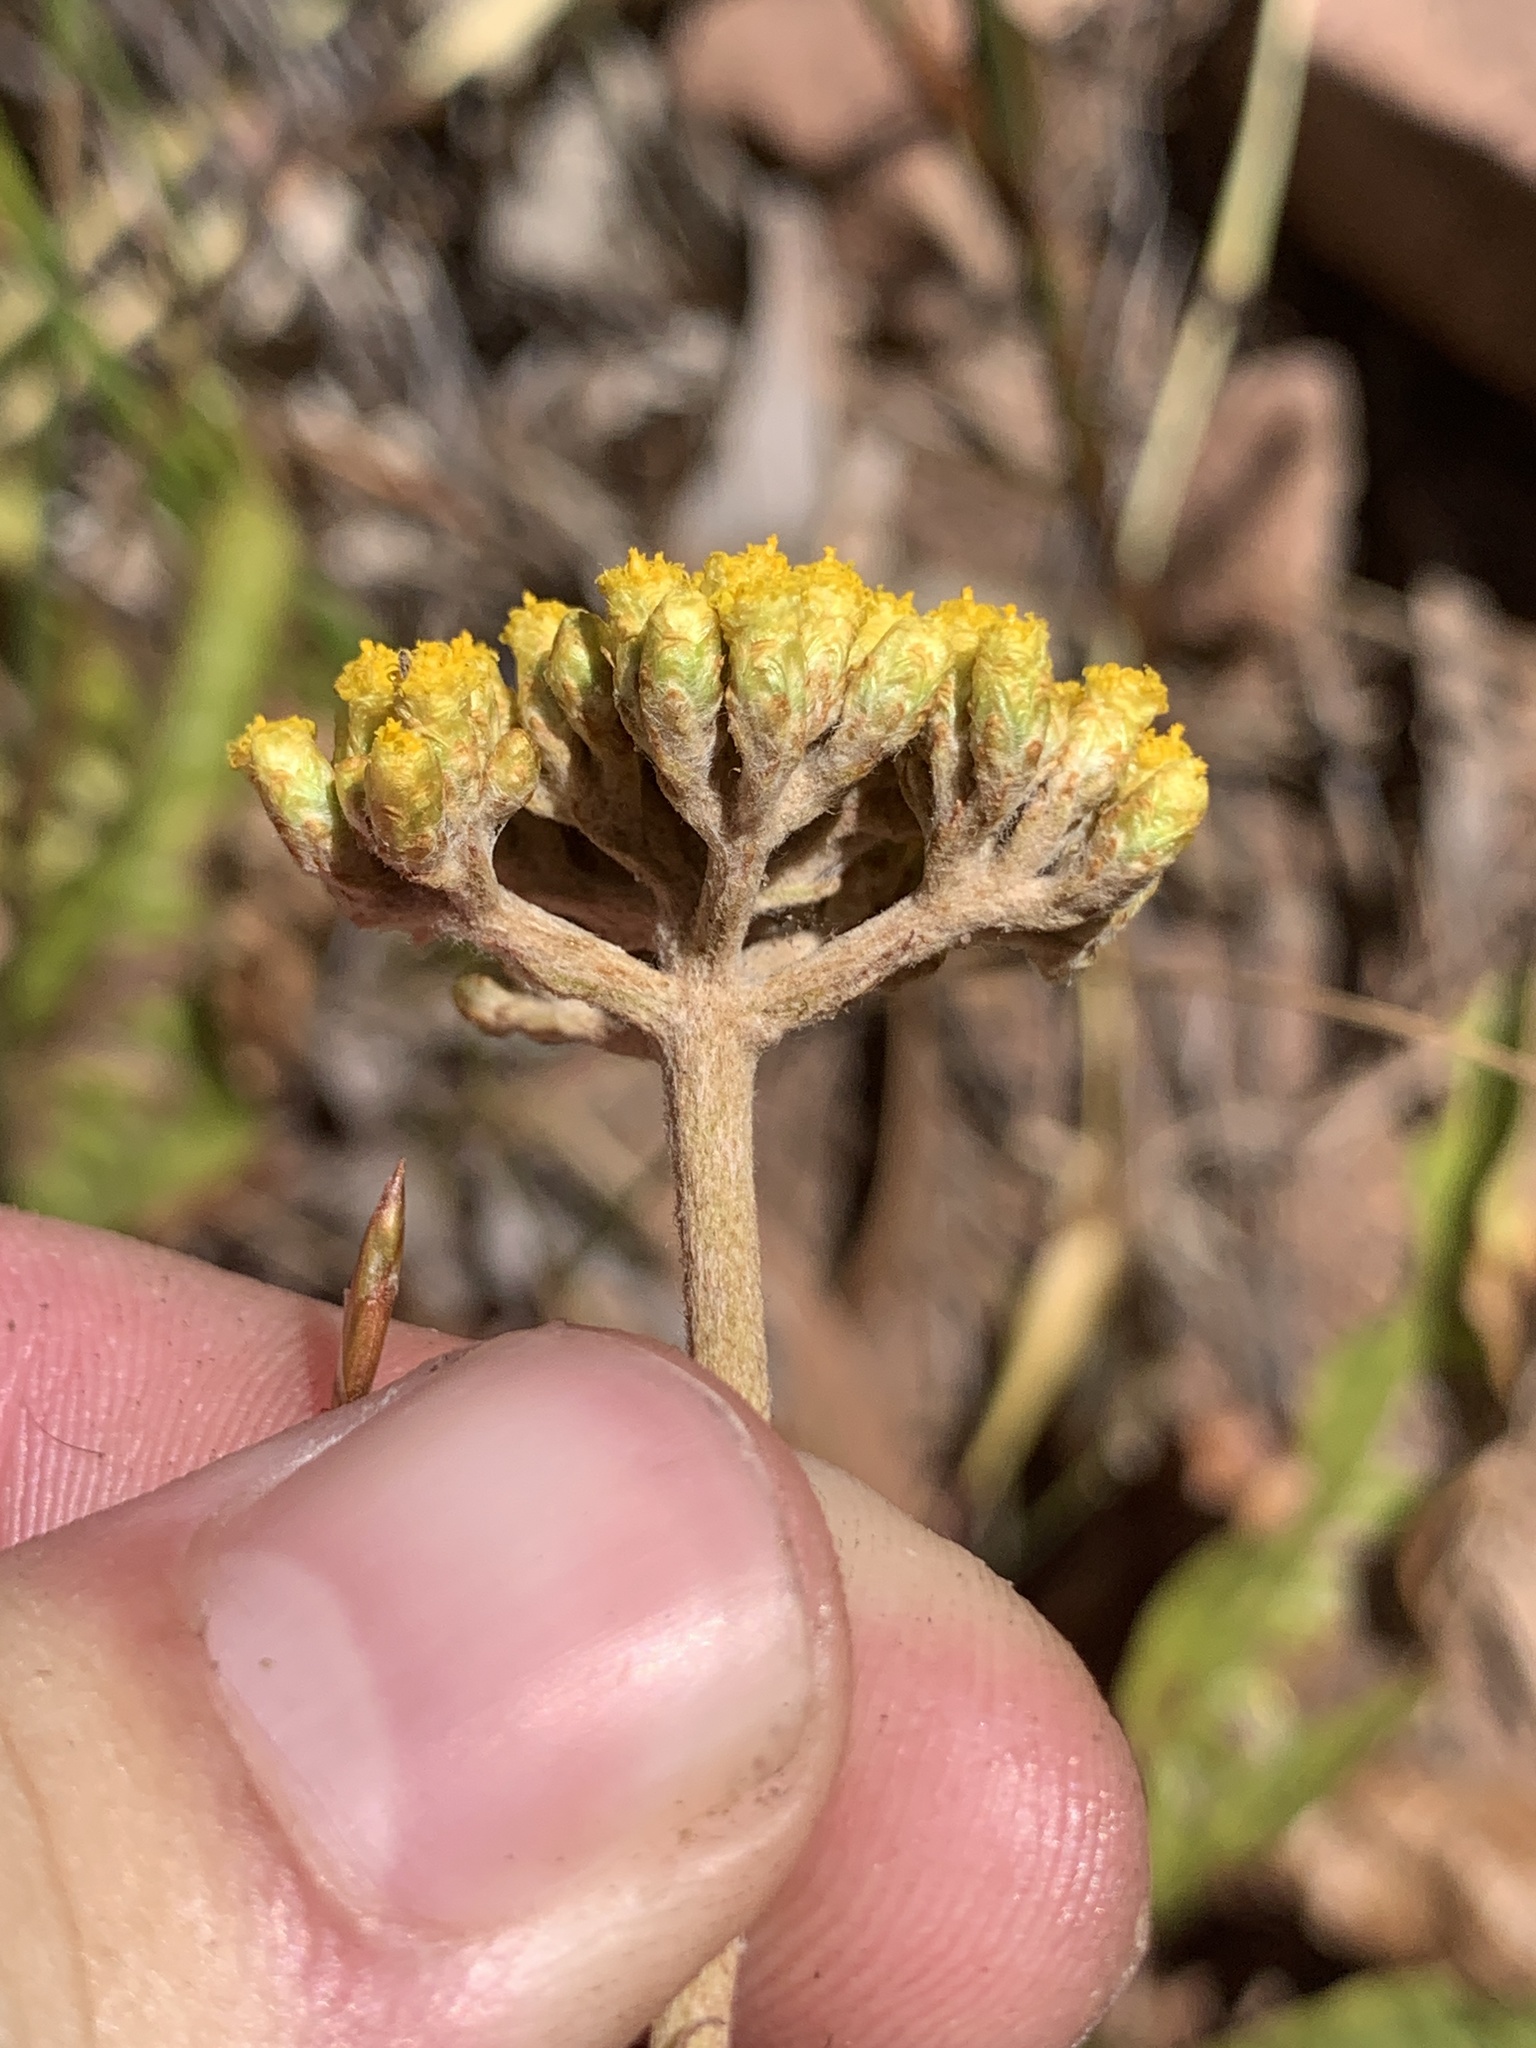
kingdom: Plantae
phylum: Tracheophyta
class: Magnoliopsida
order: Asterales
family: Asteraceae
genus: Helichrysum
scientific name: Helichrysum nudifolium
